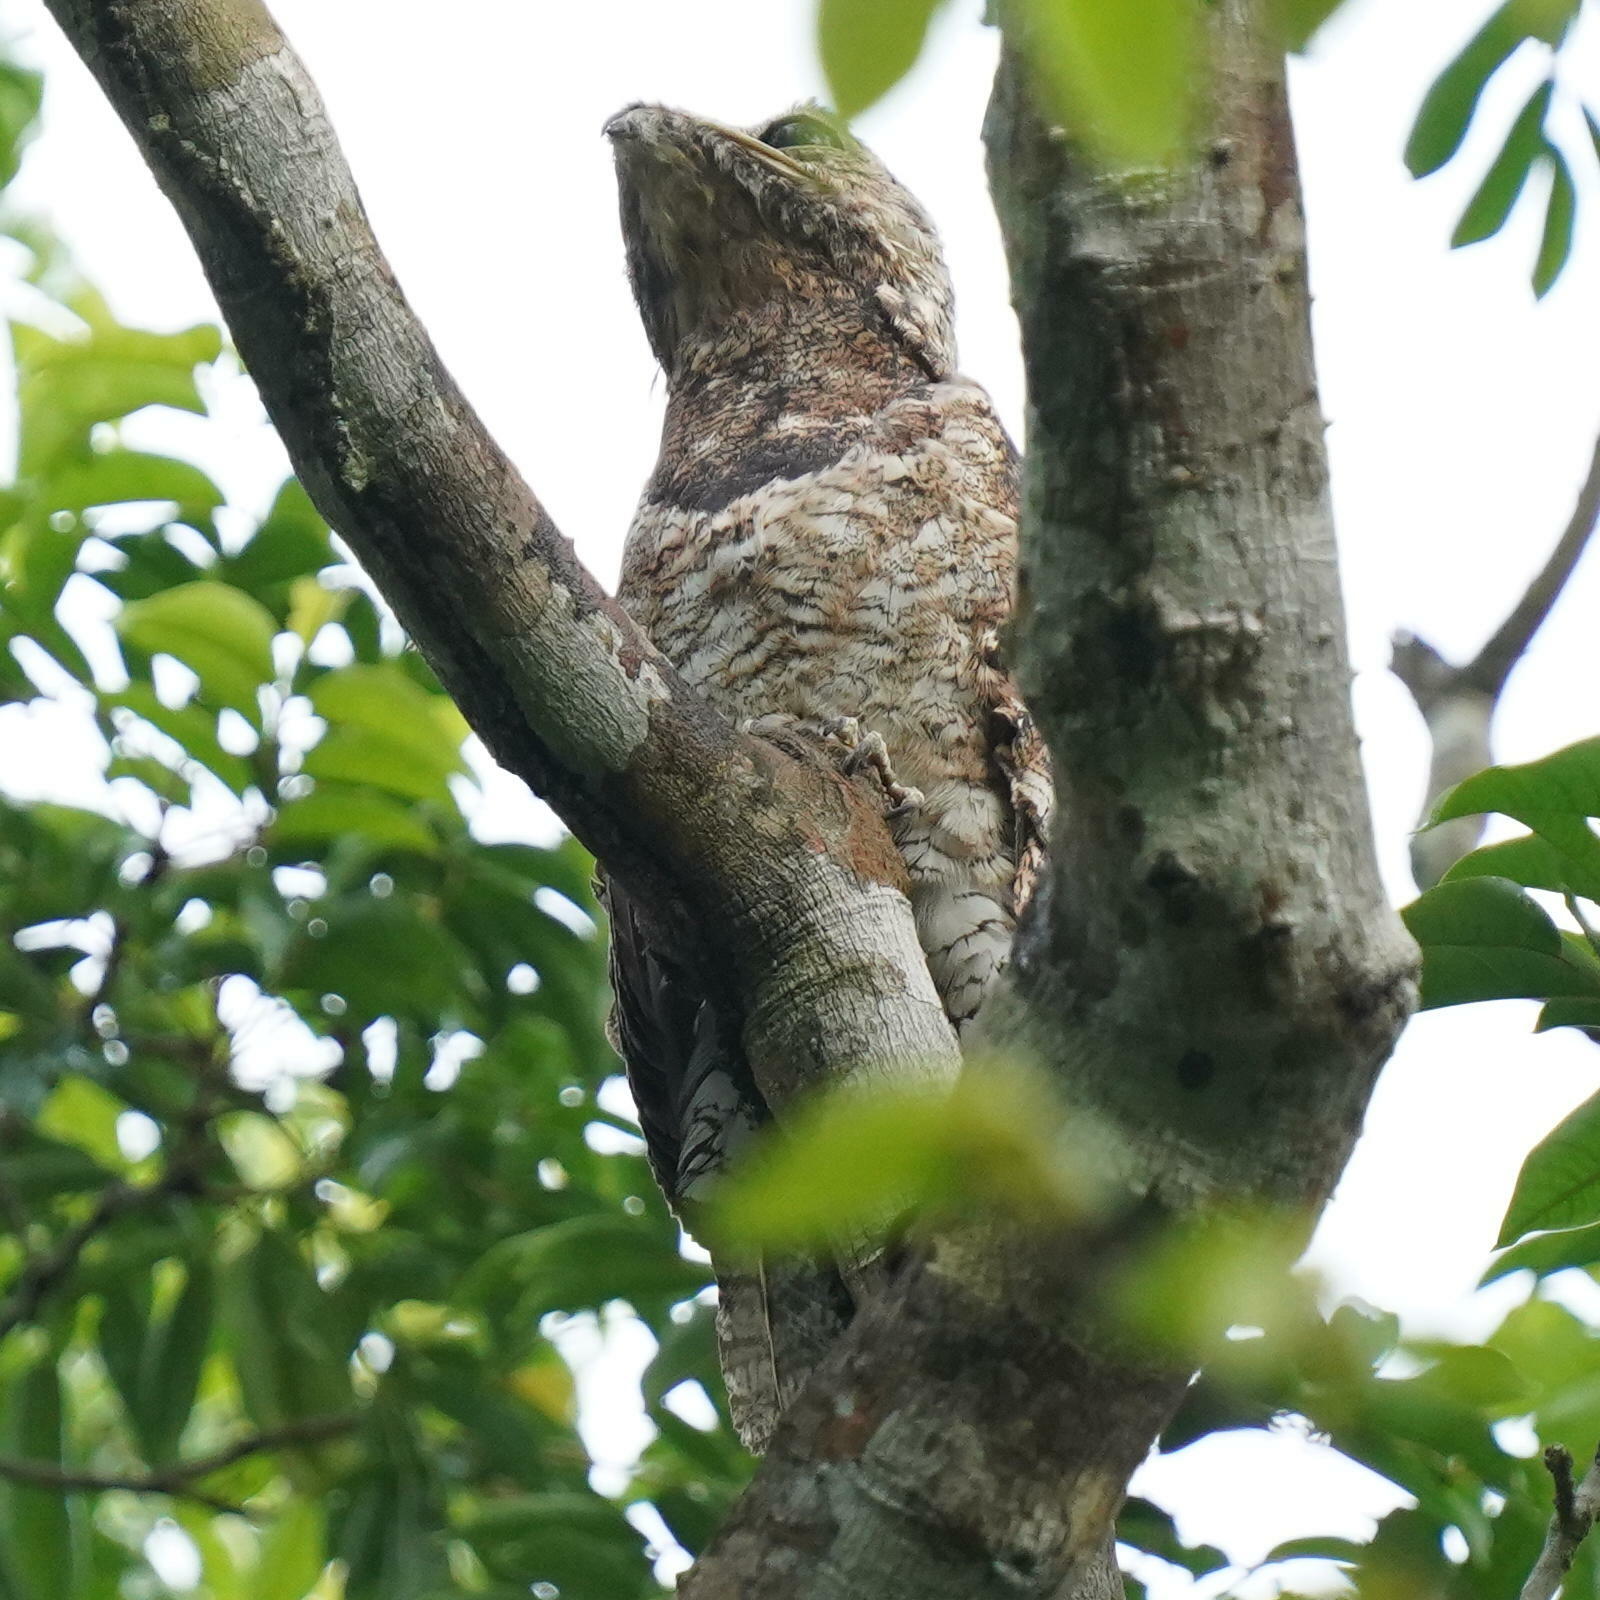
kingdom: Animalia
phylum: Chordata
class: Aves
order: Nyctibiiformes
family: Nyctibiidae
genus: Nyctibius
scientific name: Nyctibius grandis
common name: Great potoo
